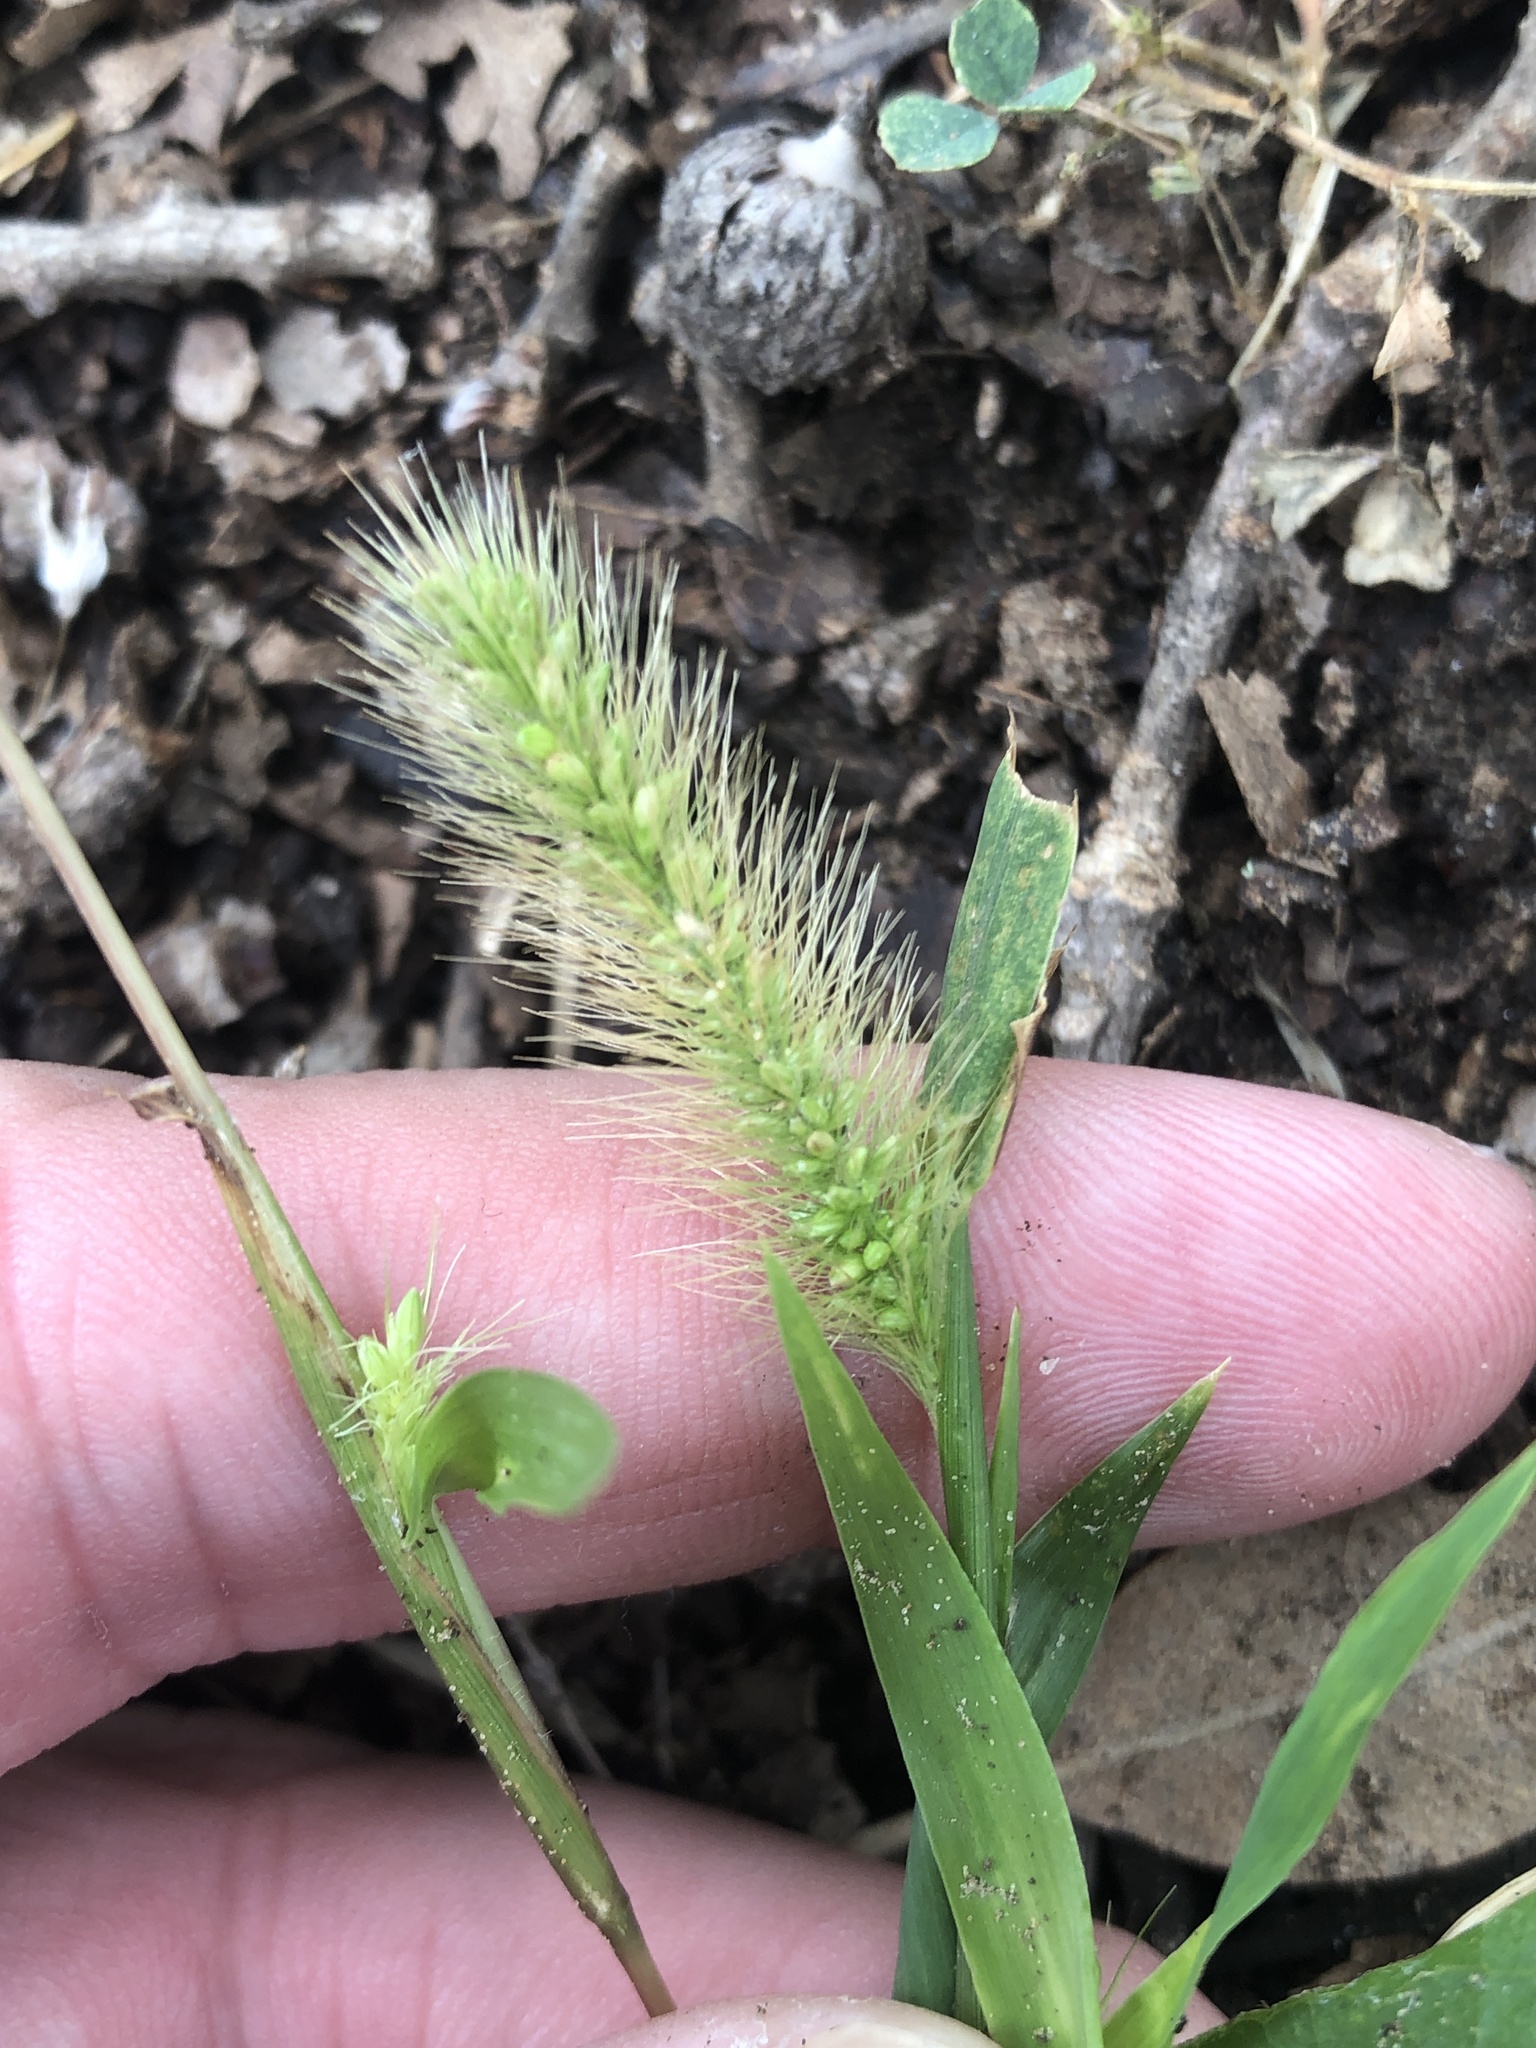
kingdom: Plantae
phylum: Tracheophyta
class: Liliopsida
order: Poales
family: Poaceae
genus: Setaria
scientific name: Setaria viridis
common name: Green bristlegrass
